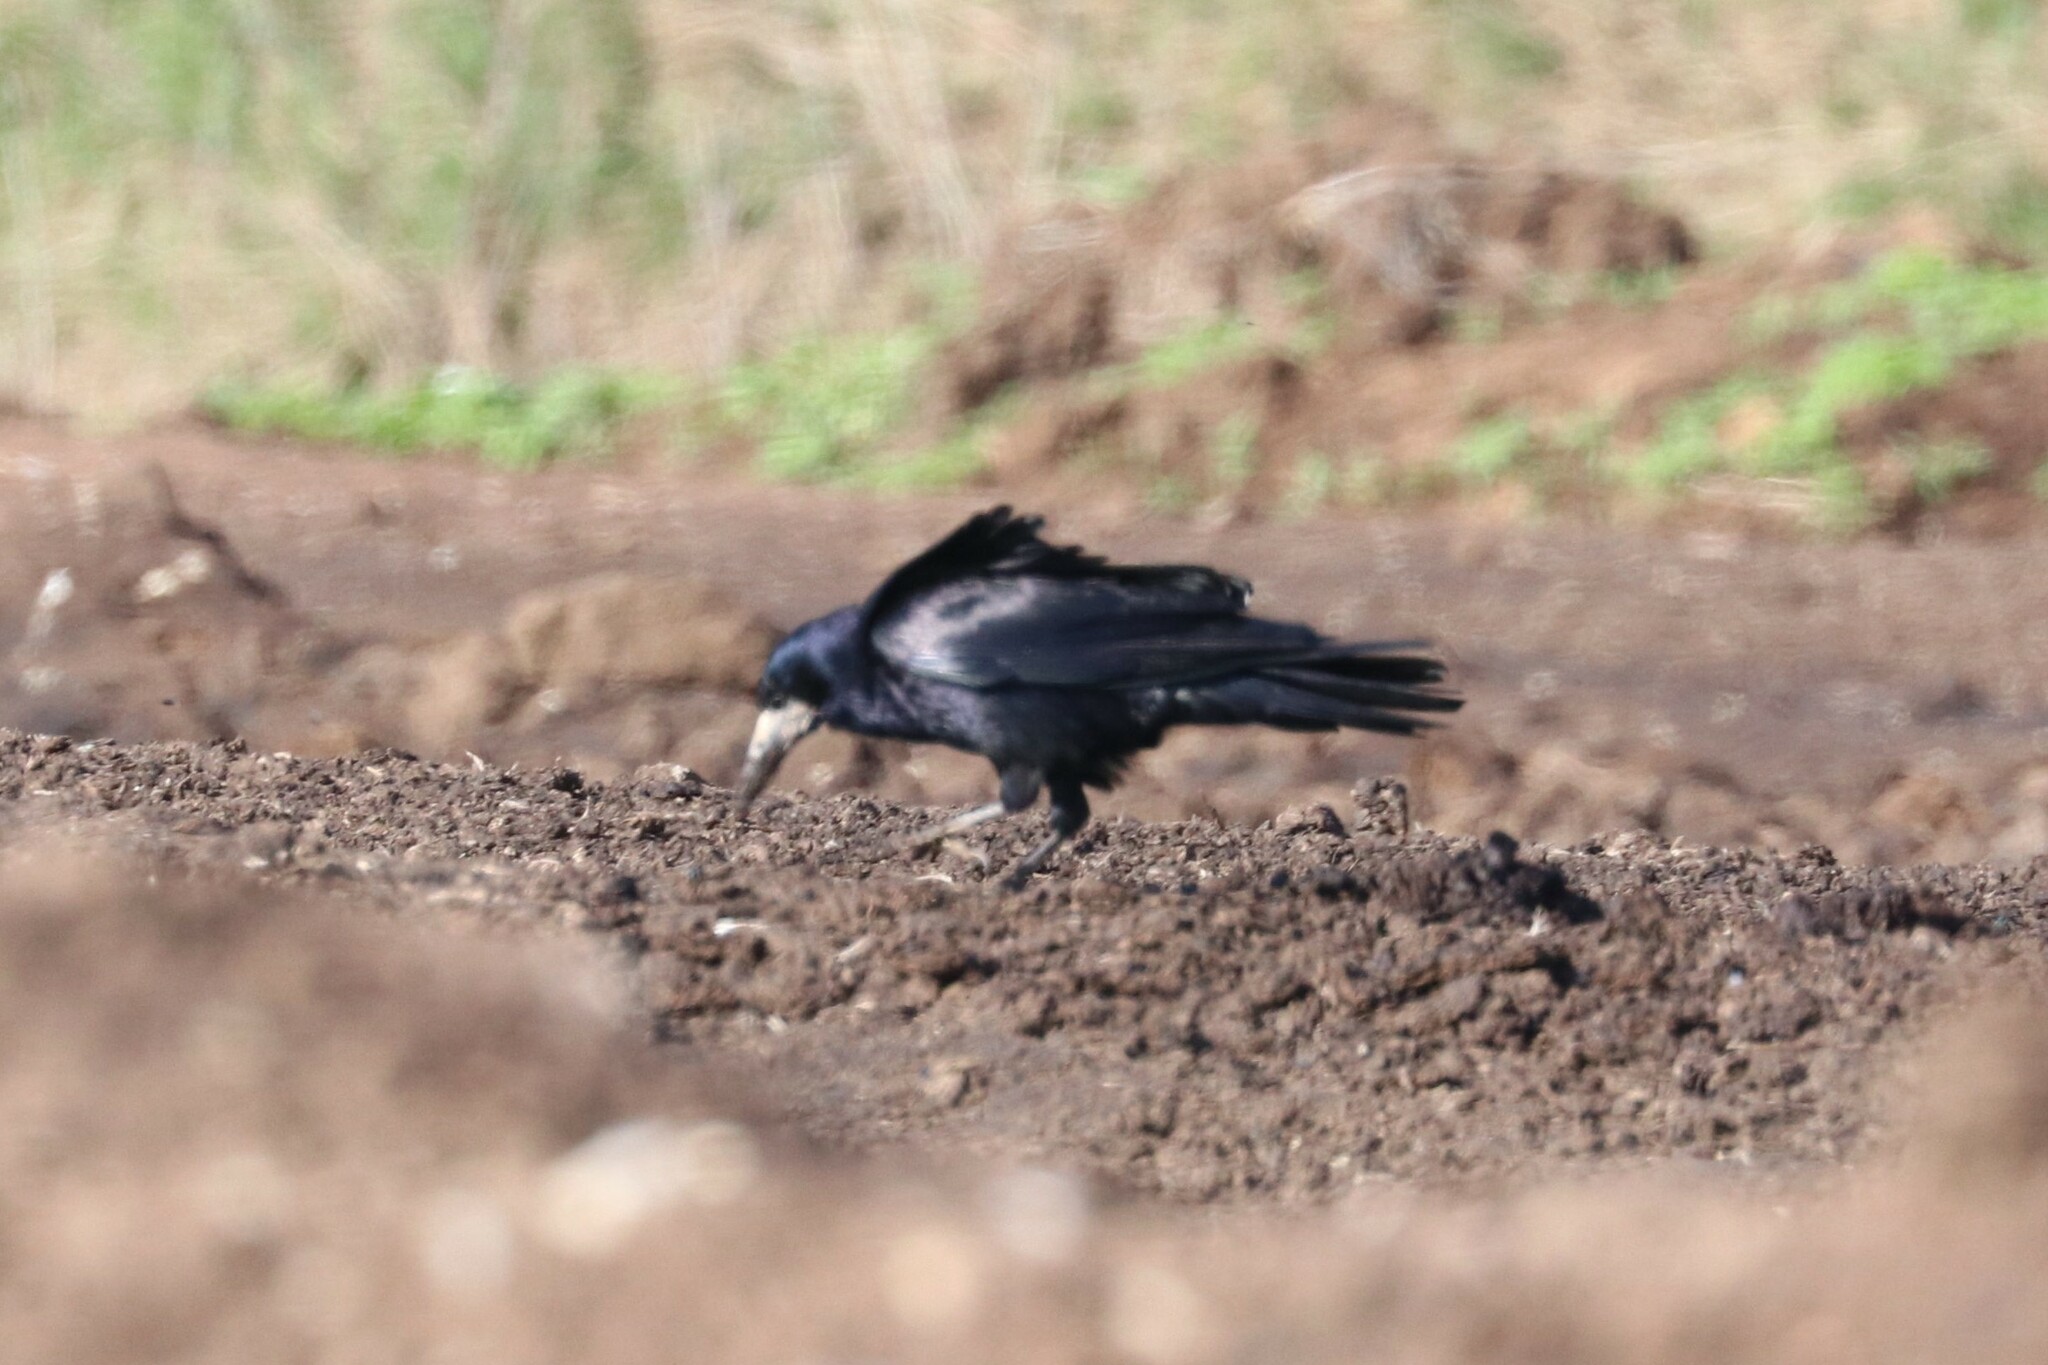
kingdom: Animalia
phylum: Chordata
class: Aves
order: Passeriformes
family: Corvidae
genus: Corvus
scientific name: Corvus frugilegus
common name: Rook
